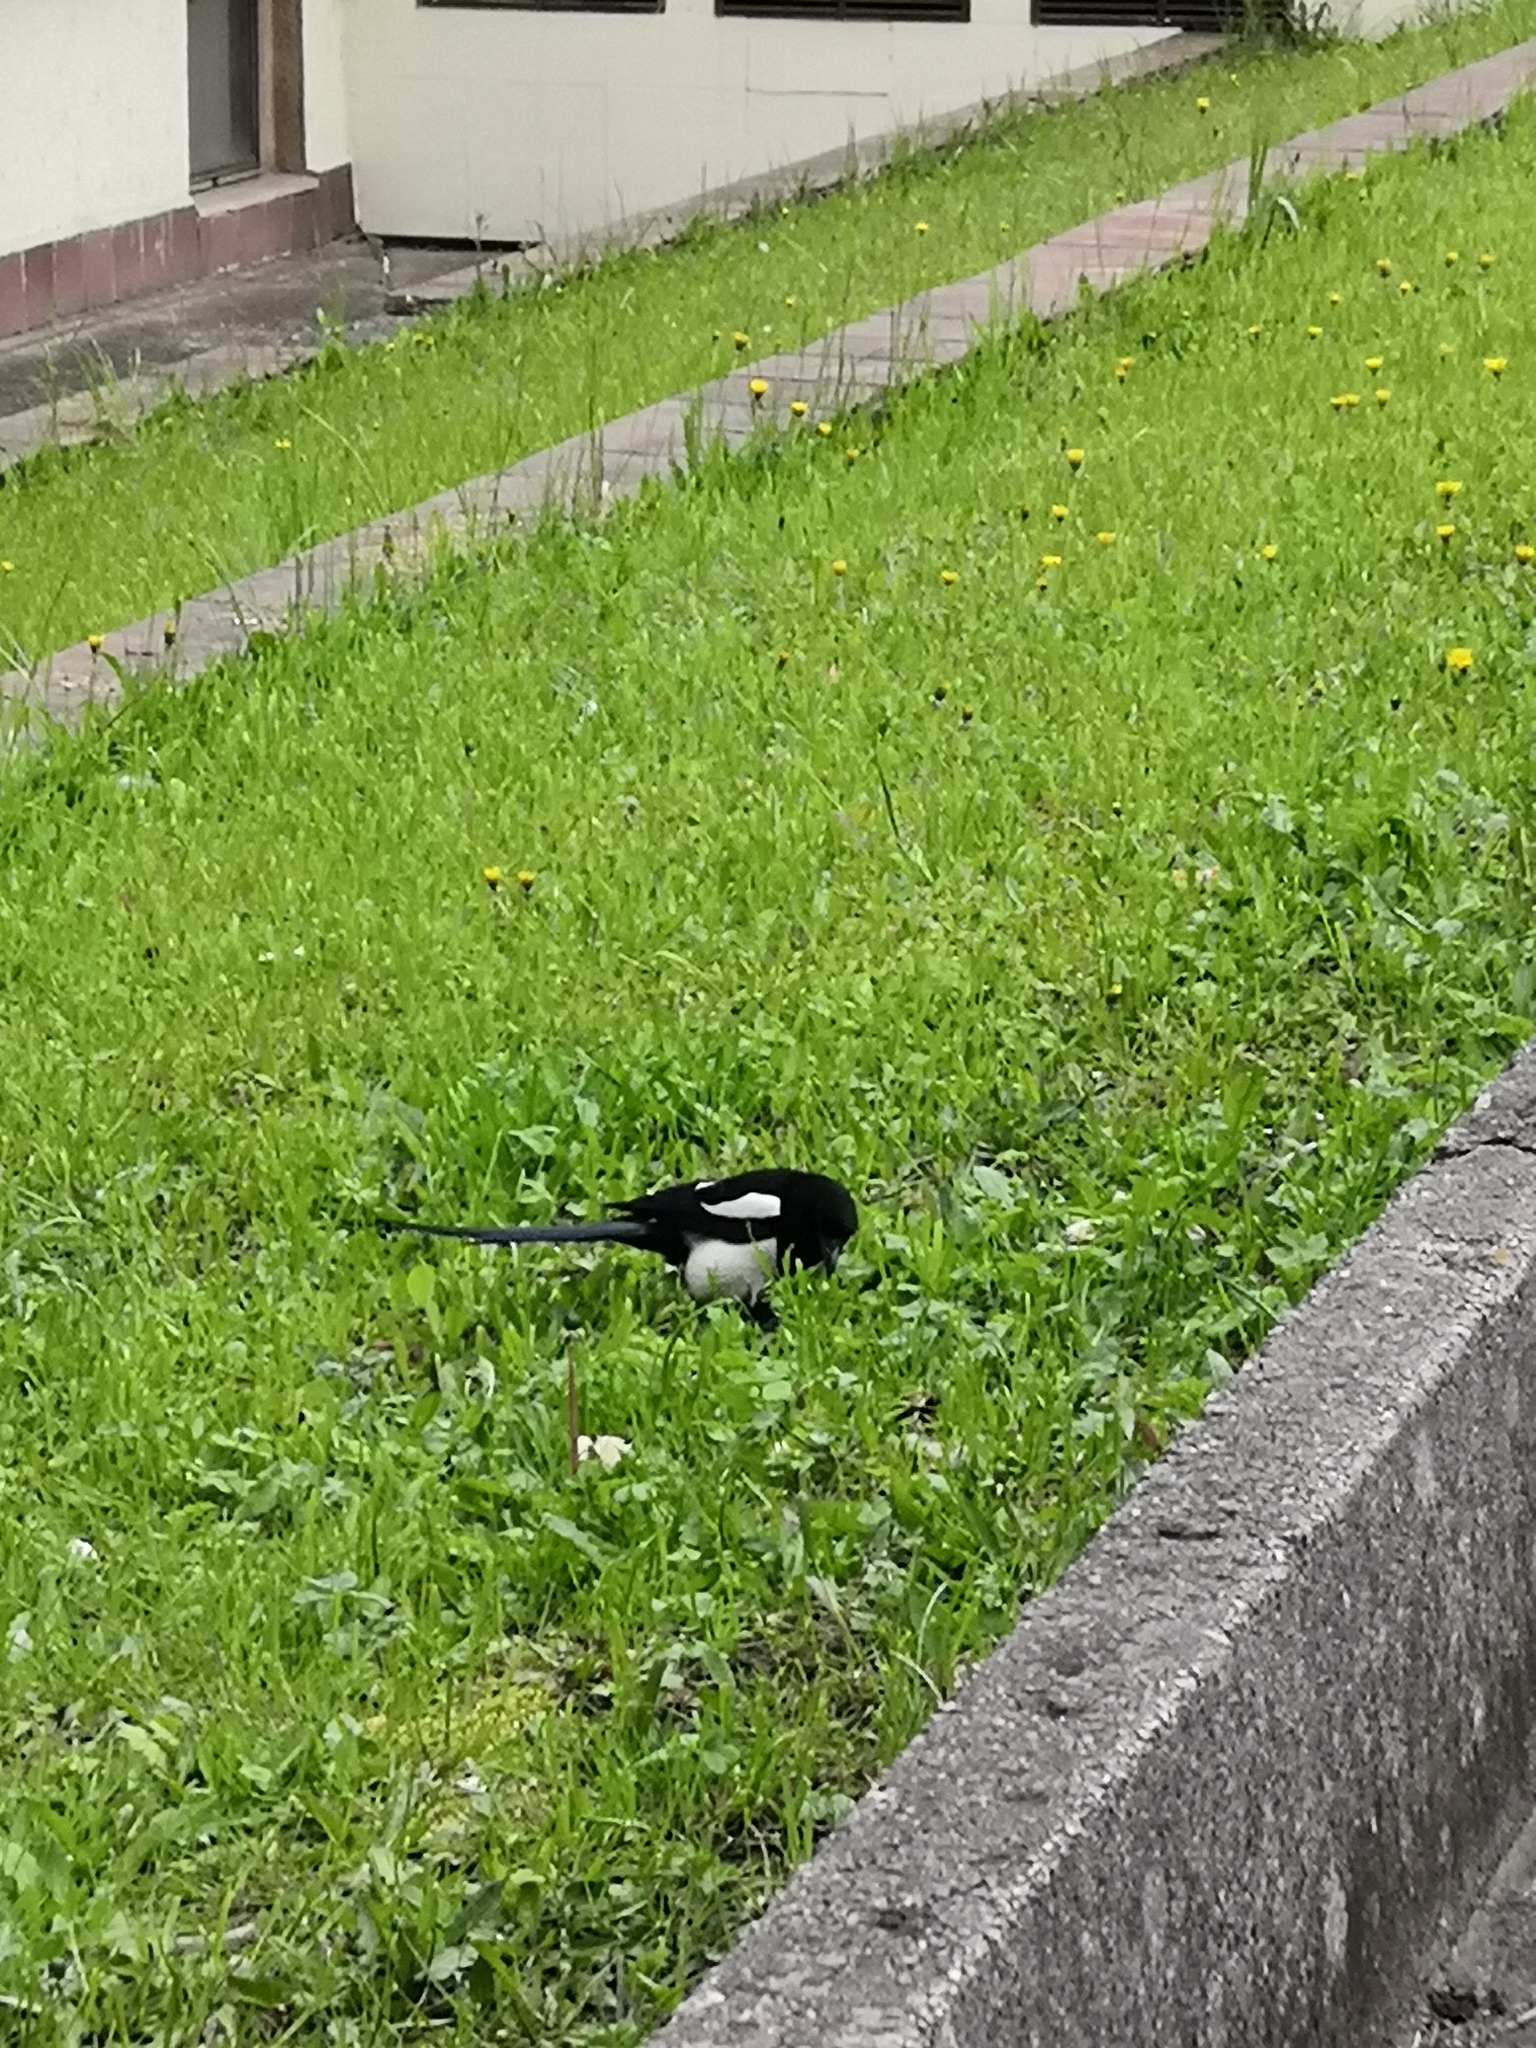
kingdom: Animalia
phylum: Chordata
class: Aves
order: Passeriformes
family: Corvidae
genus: Pica
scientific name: Pica pica
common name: Eurasian magpie
